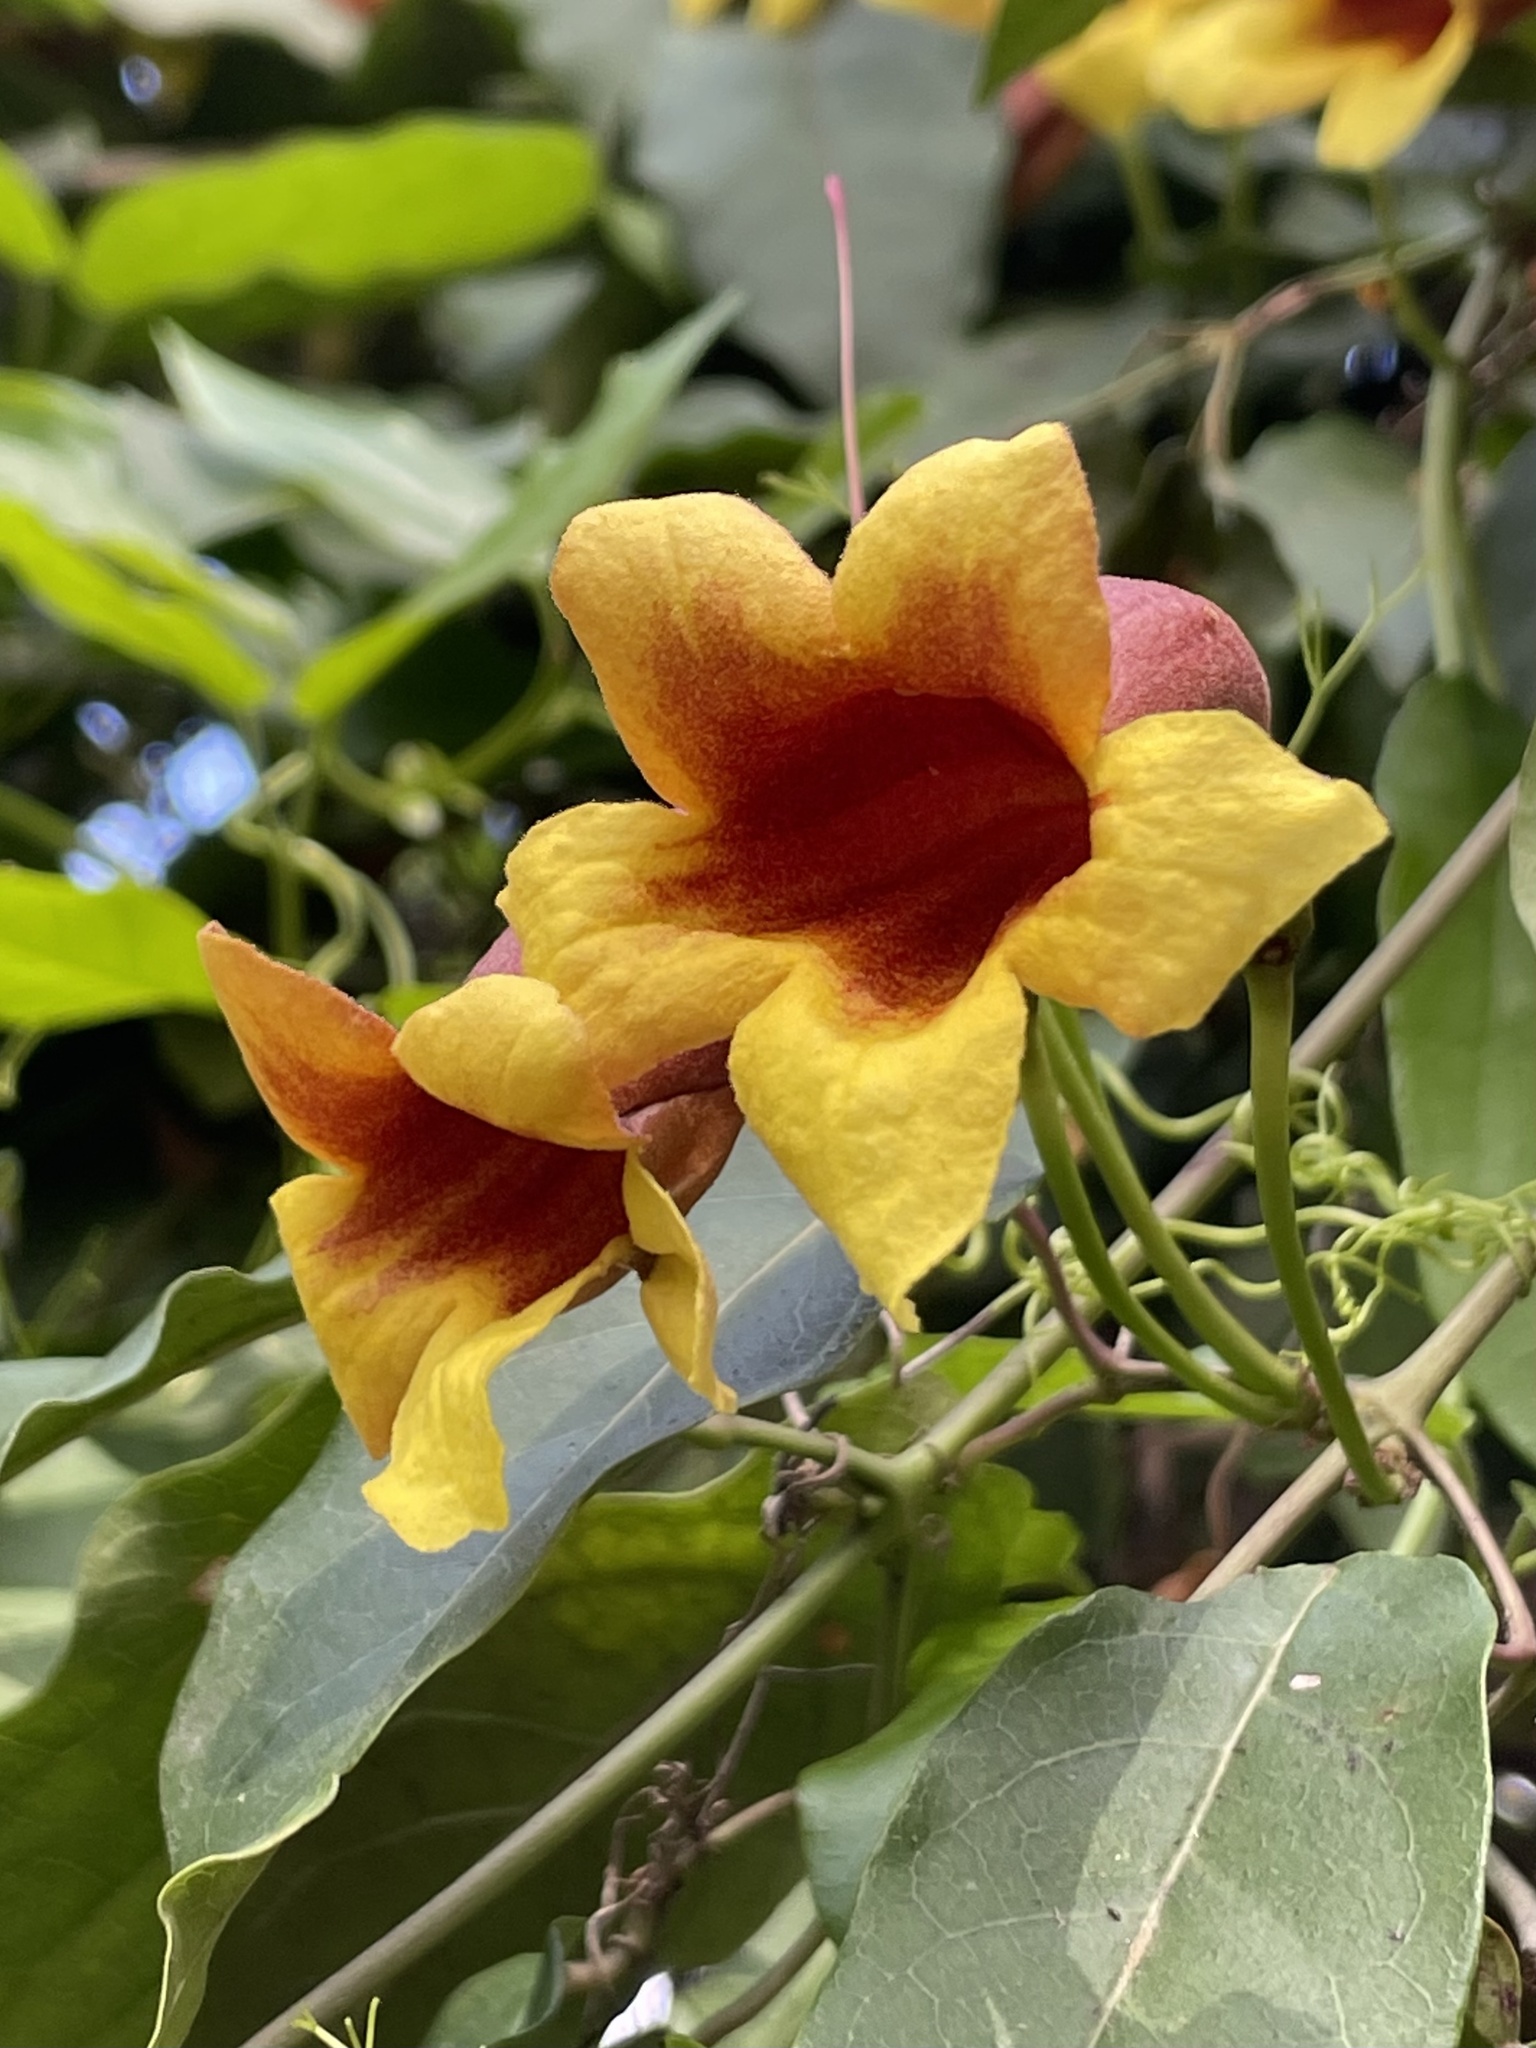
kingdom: Plantae
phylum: Tracheophyta
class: Magnoliopsida
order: Lamiales
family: Bignoniaceae
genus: Bignonia
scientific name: Bignonia capreolata
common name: Crossvine
